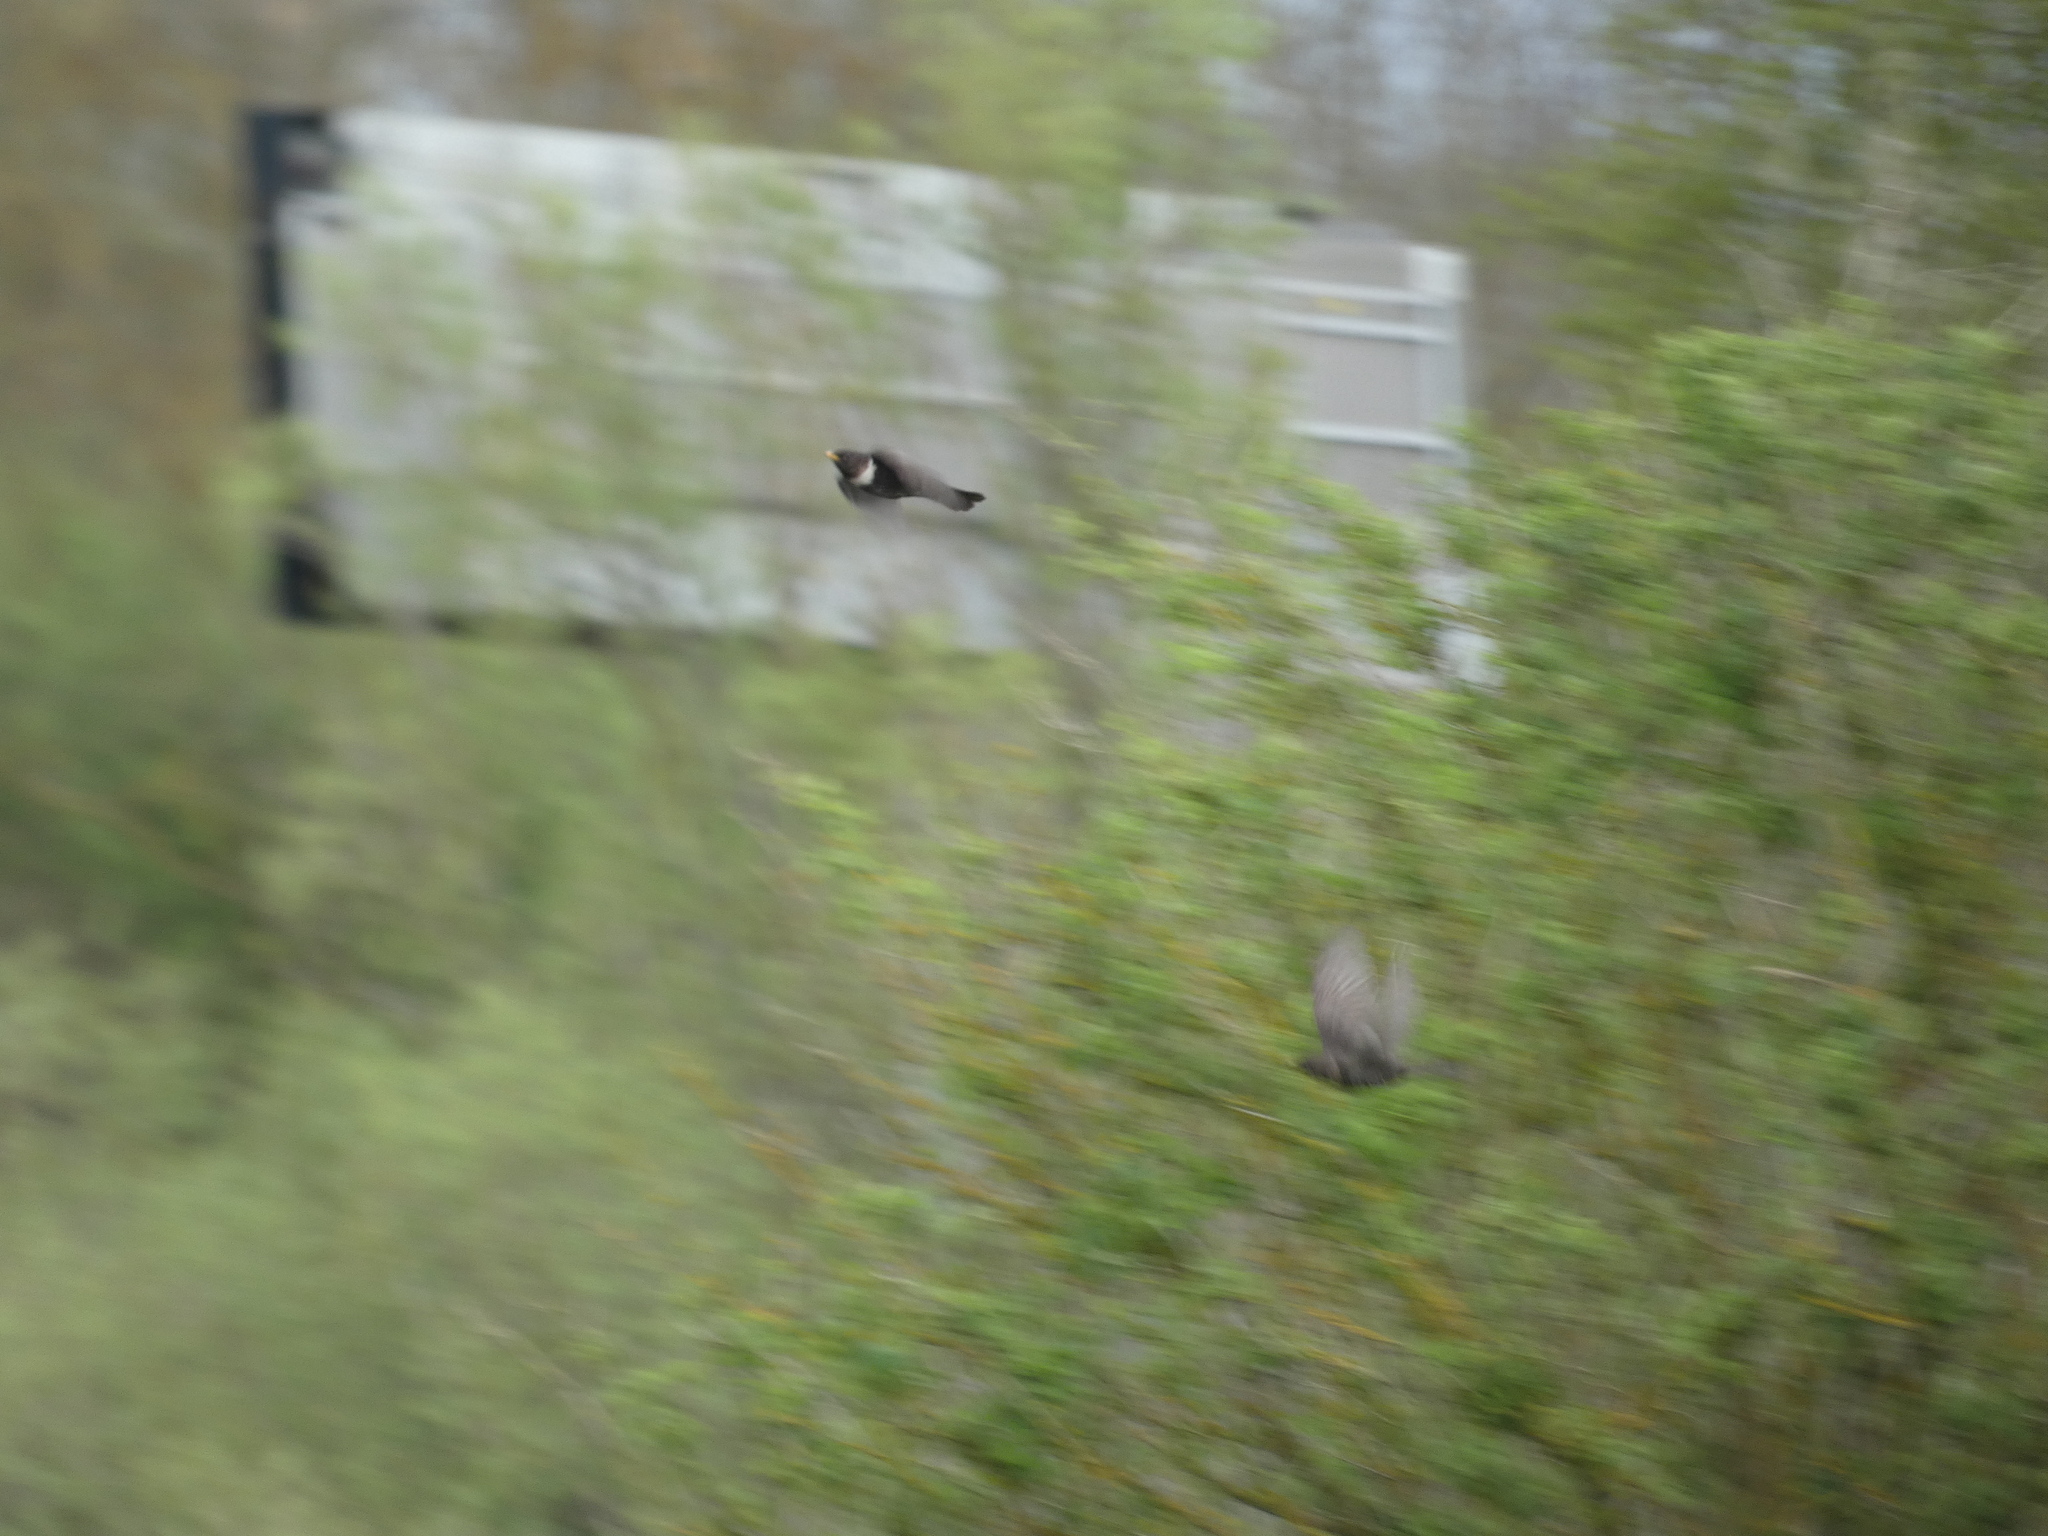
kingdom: Animalia
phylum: Chordata
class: Aves
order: Passeriformes
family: Turdidae
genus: Turdus
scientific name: Turdus torquatus
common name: Ring ouzel
